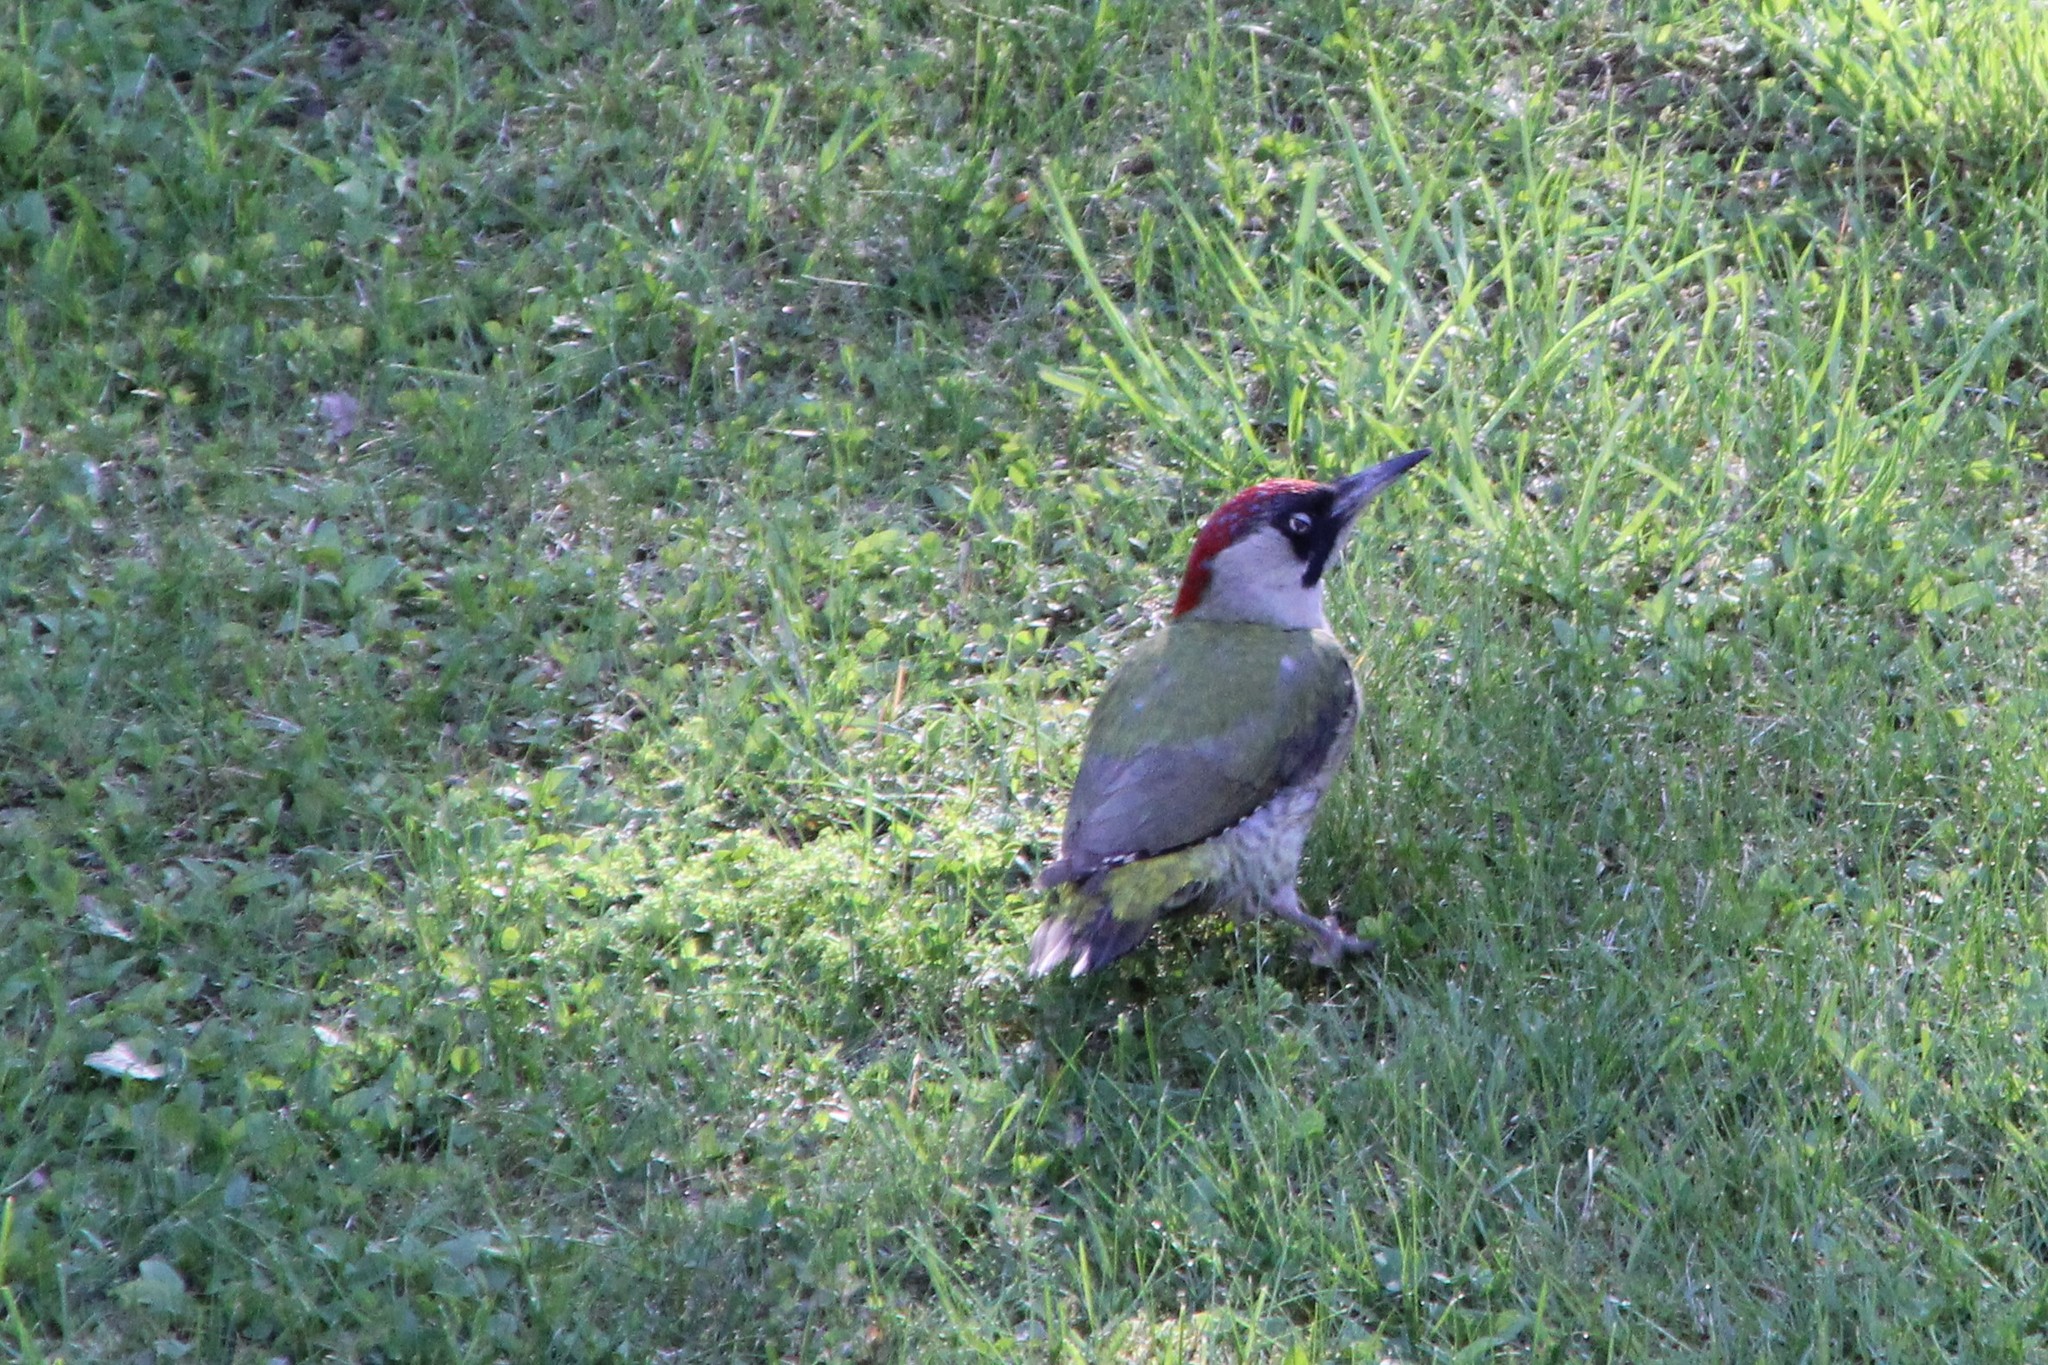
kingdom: Animalia
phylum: Chordata
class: Aves
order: Piciformes
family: Picidae
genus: Picus
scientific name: Picus viridis
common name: European green woodpecker
